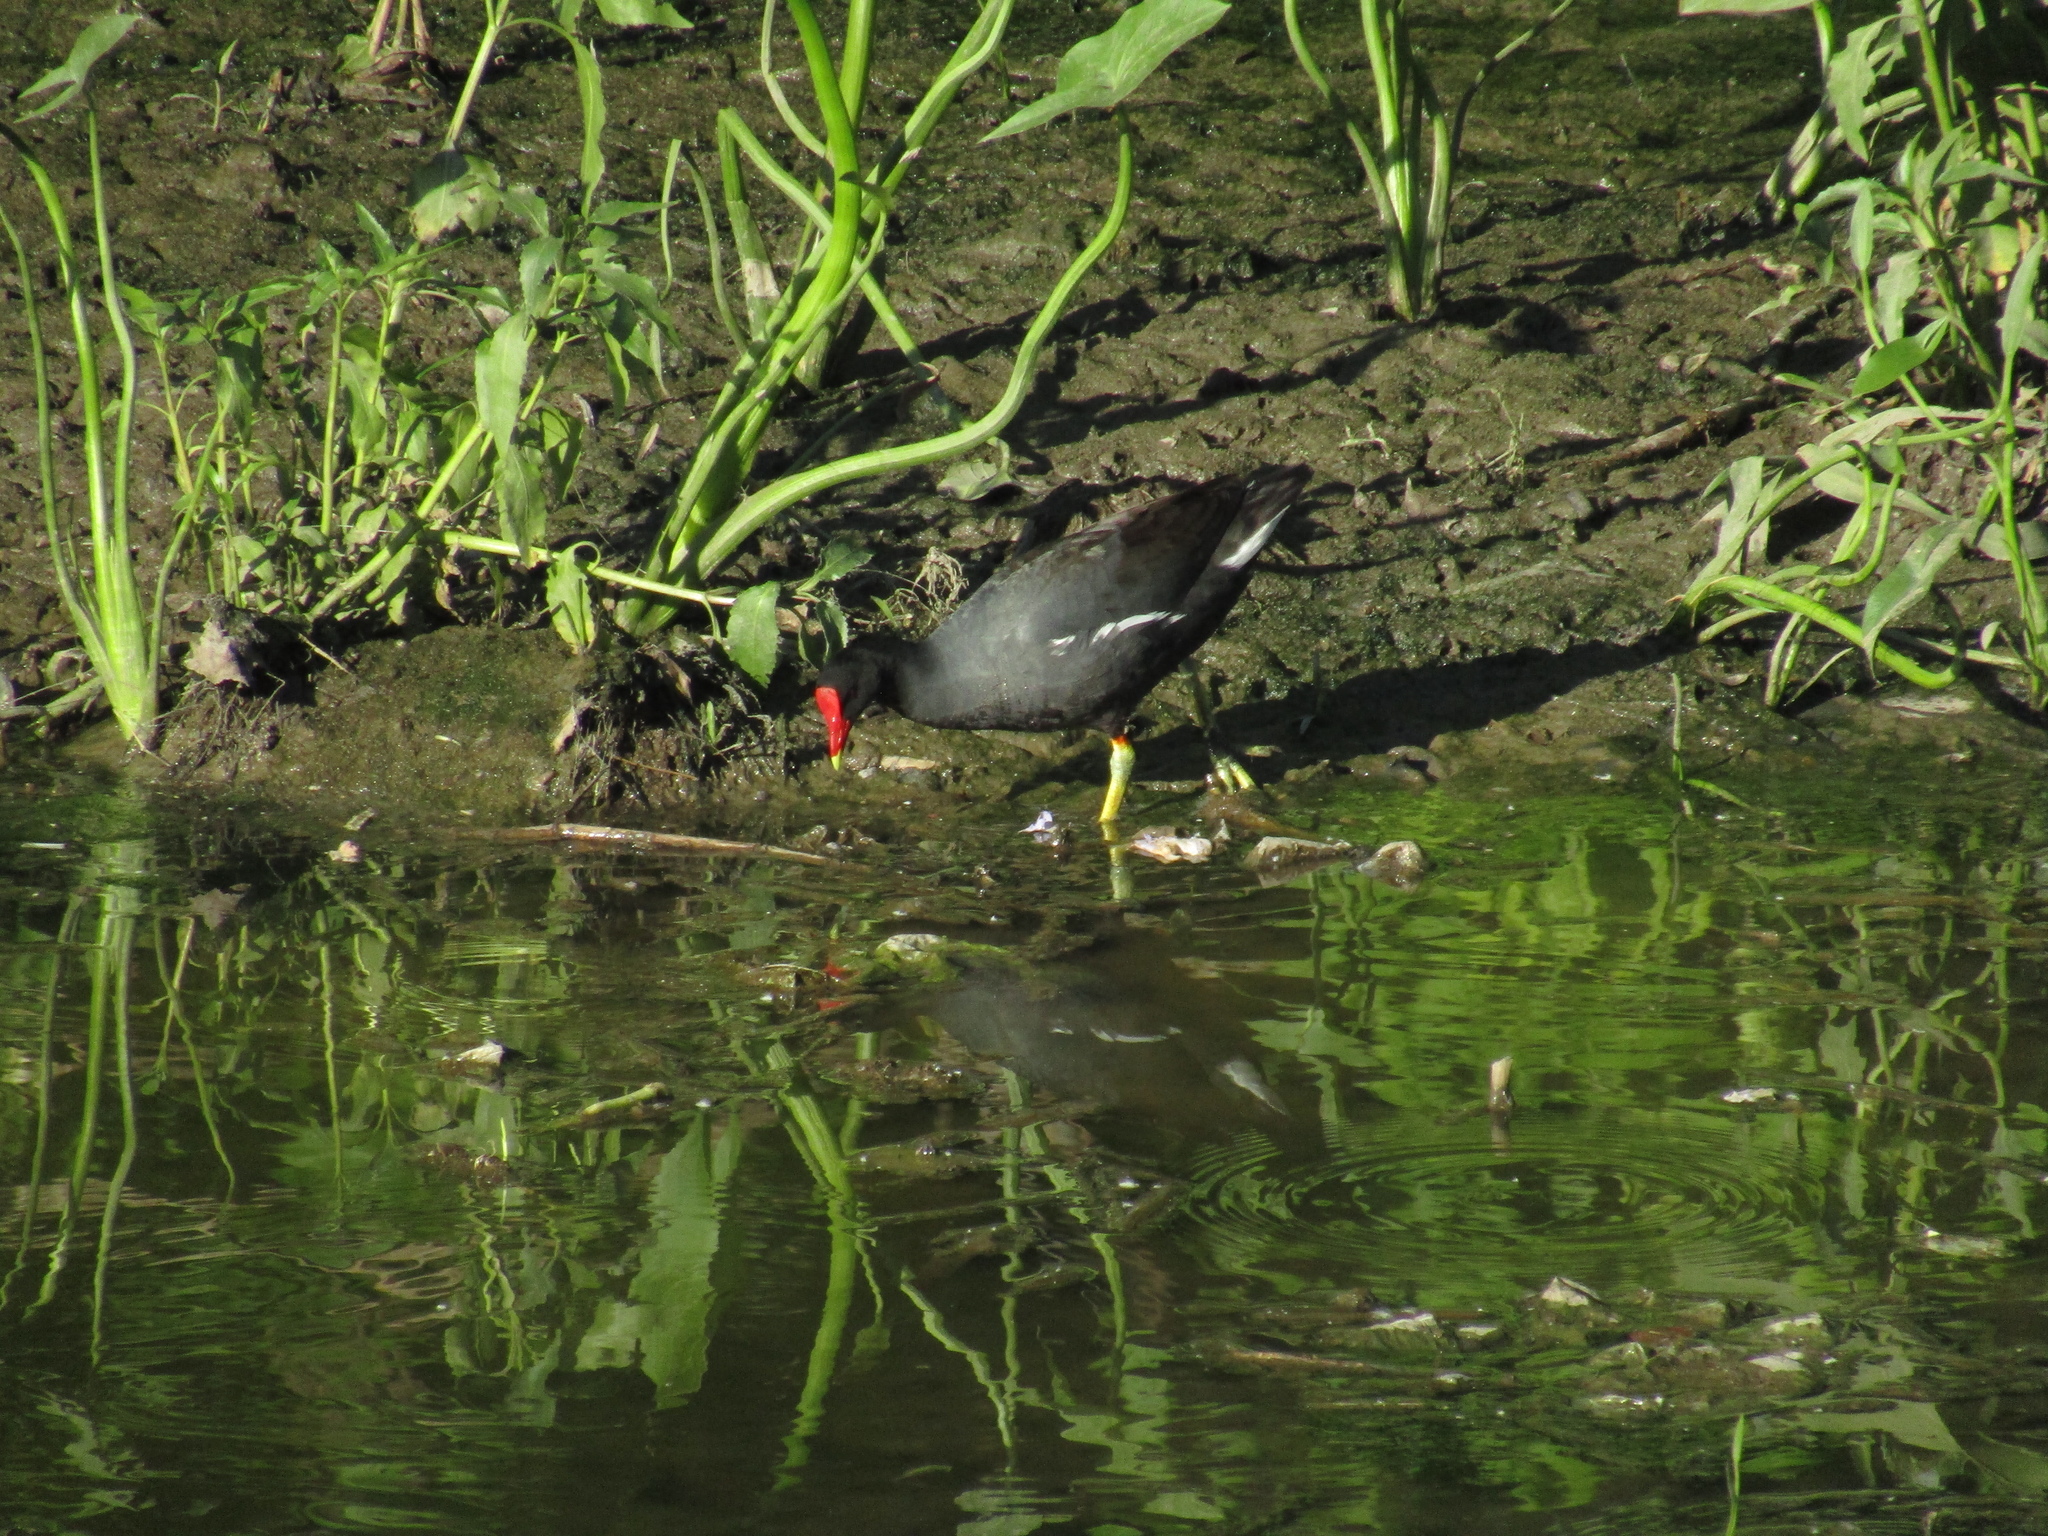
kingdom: Animalia
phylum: Chordata
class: Aves
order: Gruiformes
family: Rallidae
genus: Gallinula
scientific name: Gallinula chloropus
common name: Common moorhen
